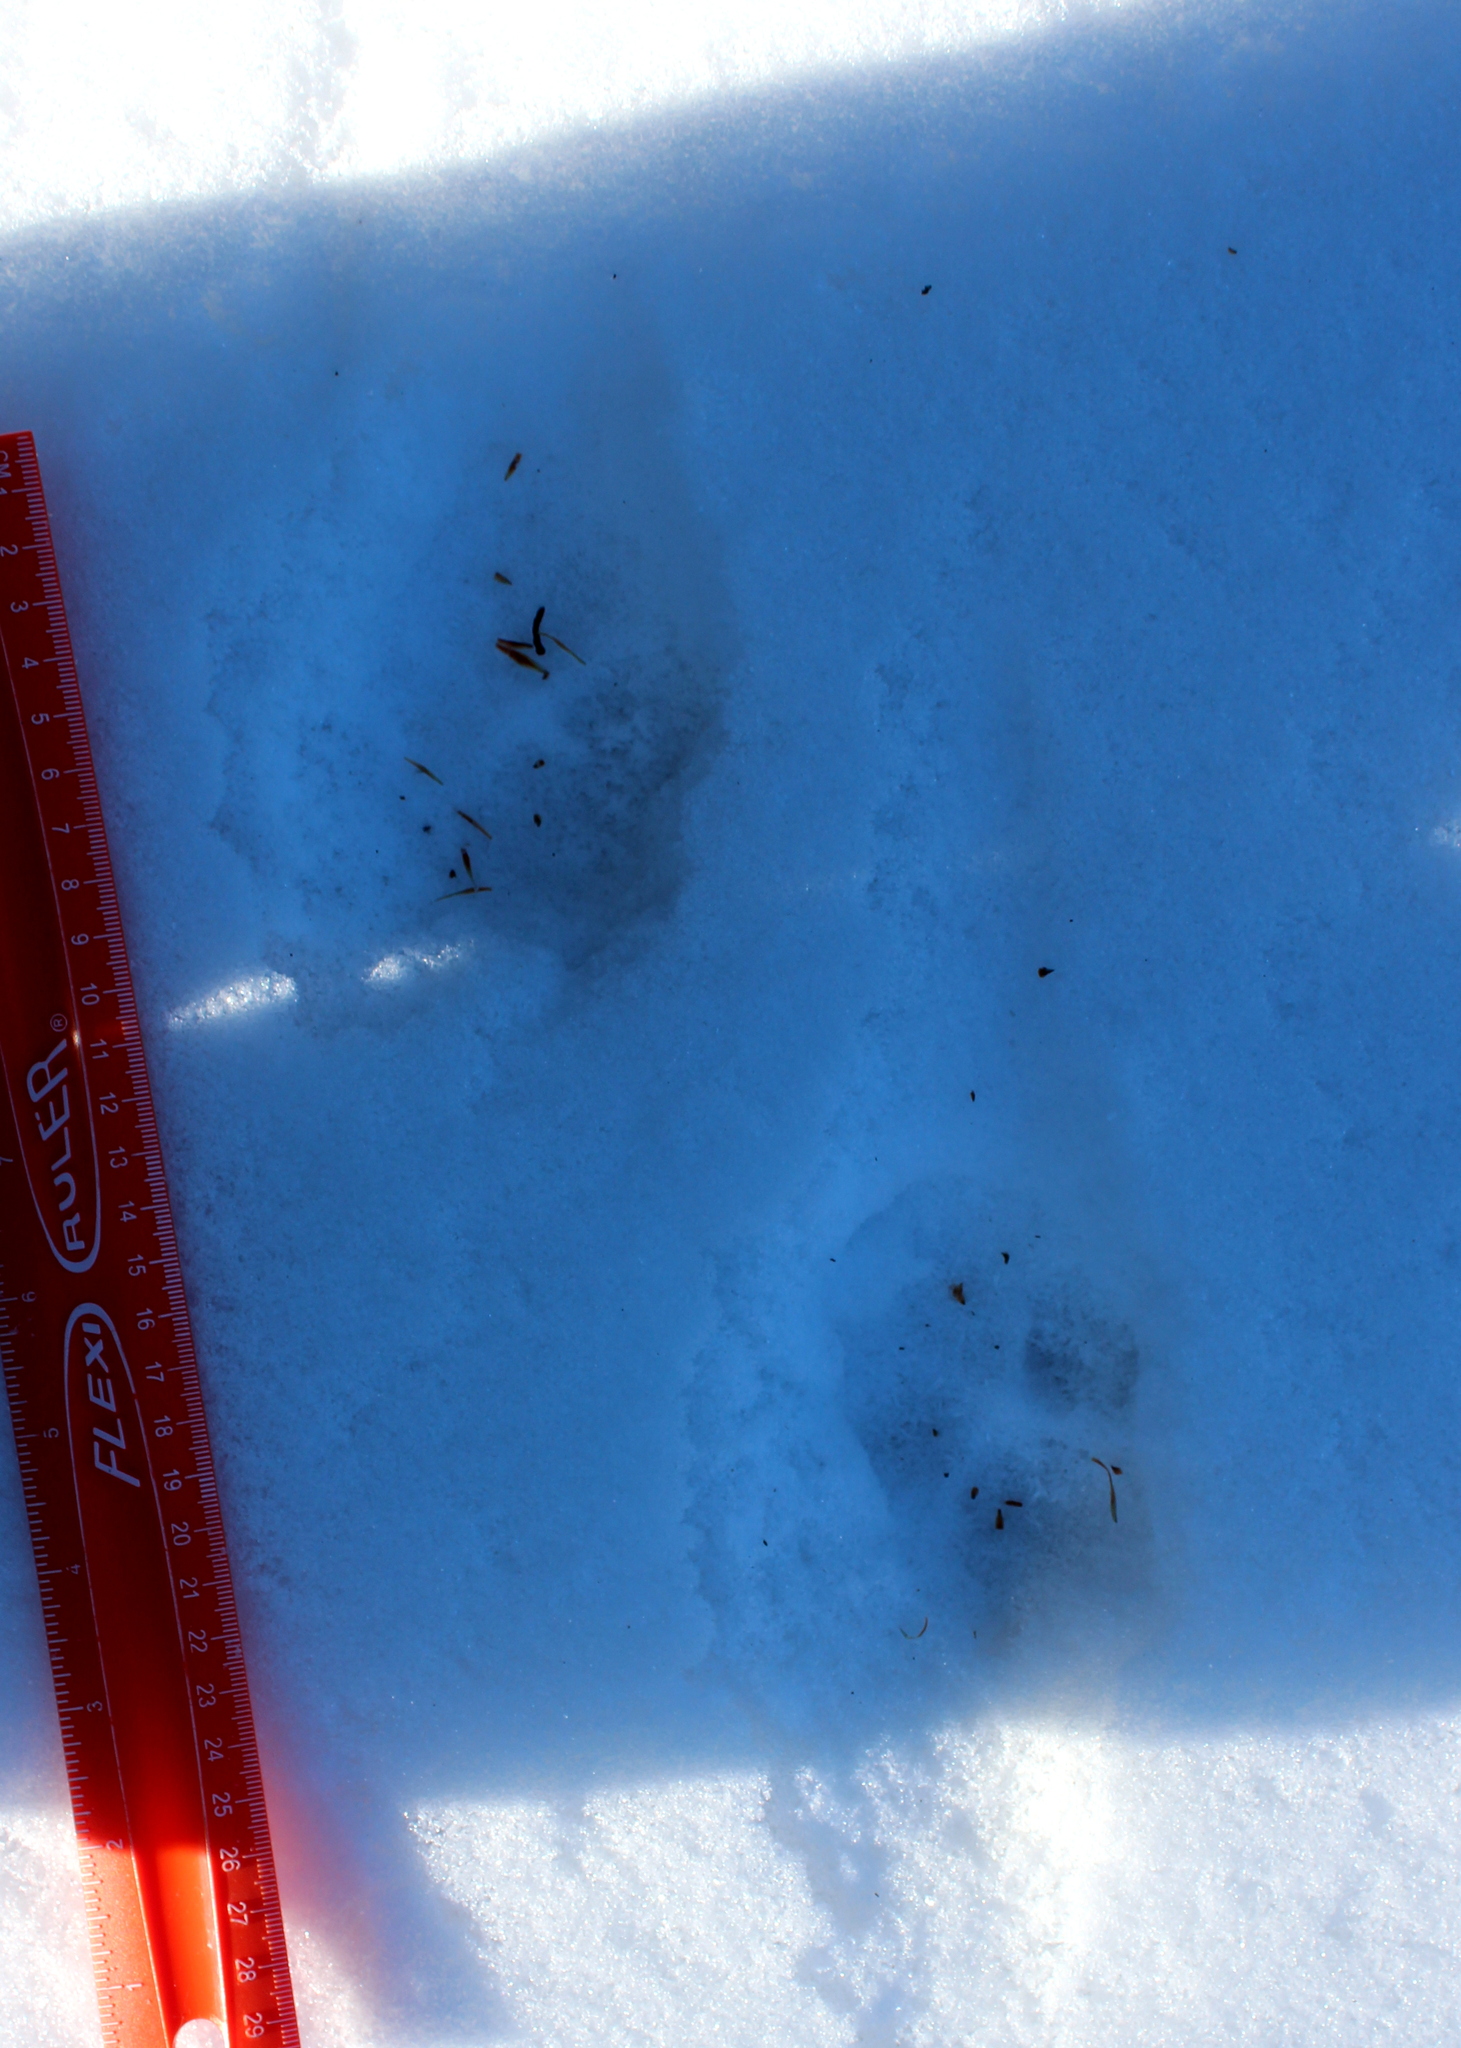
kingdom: Animalia
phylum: Chordata
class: Mammalia
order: Carnivora
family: Canidae
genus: Canis
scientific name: Canis latrans
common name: Coyote
